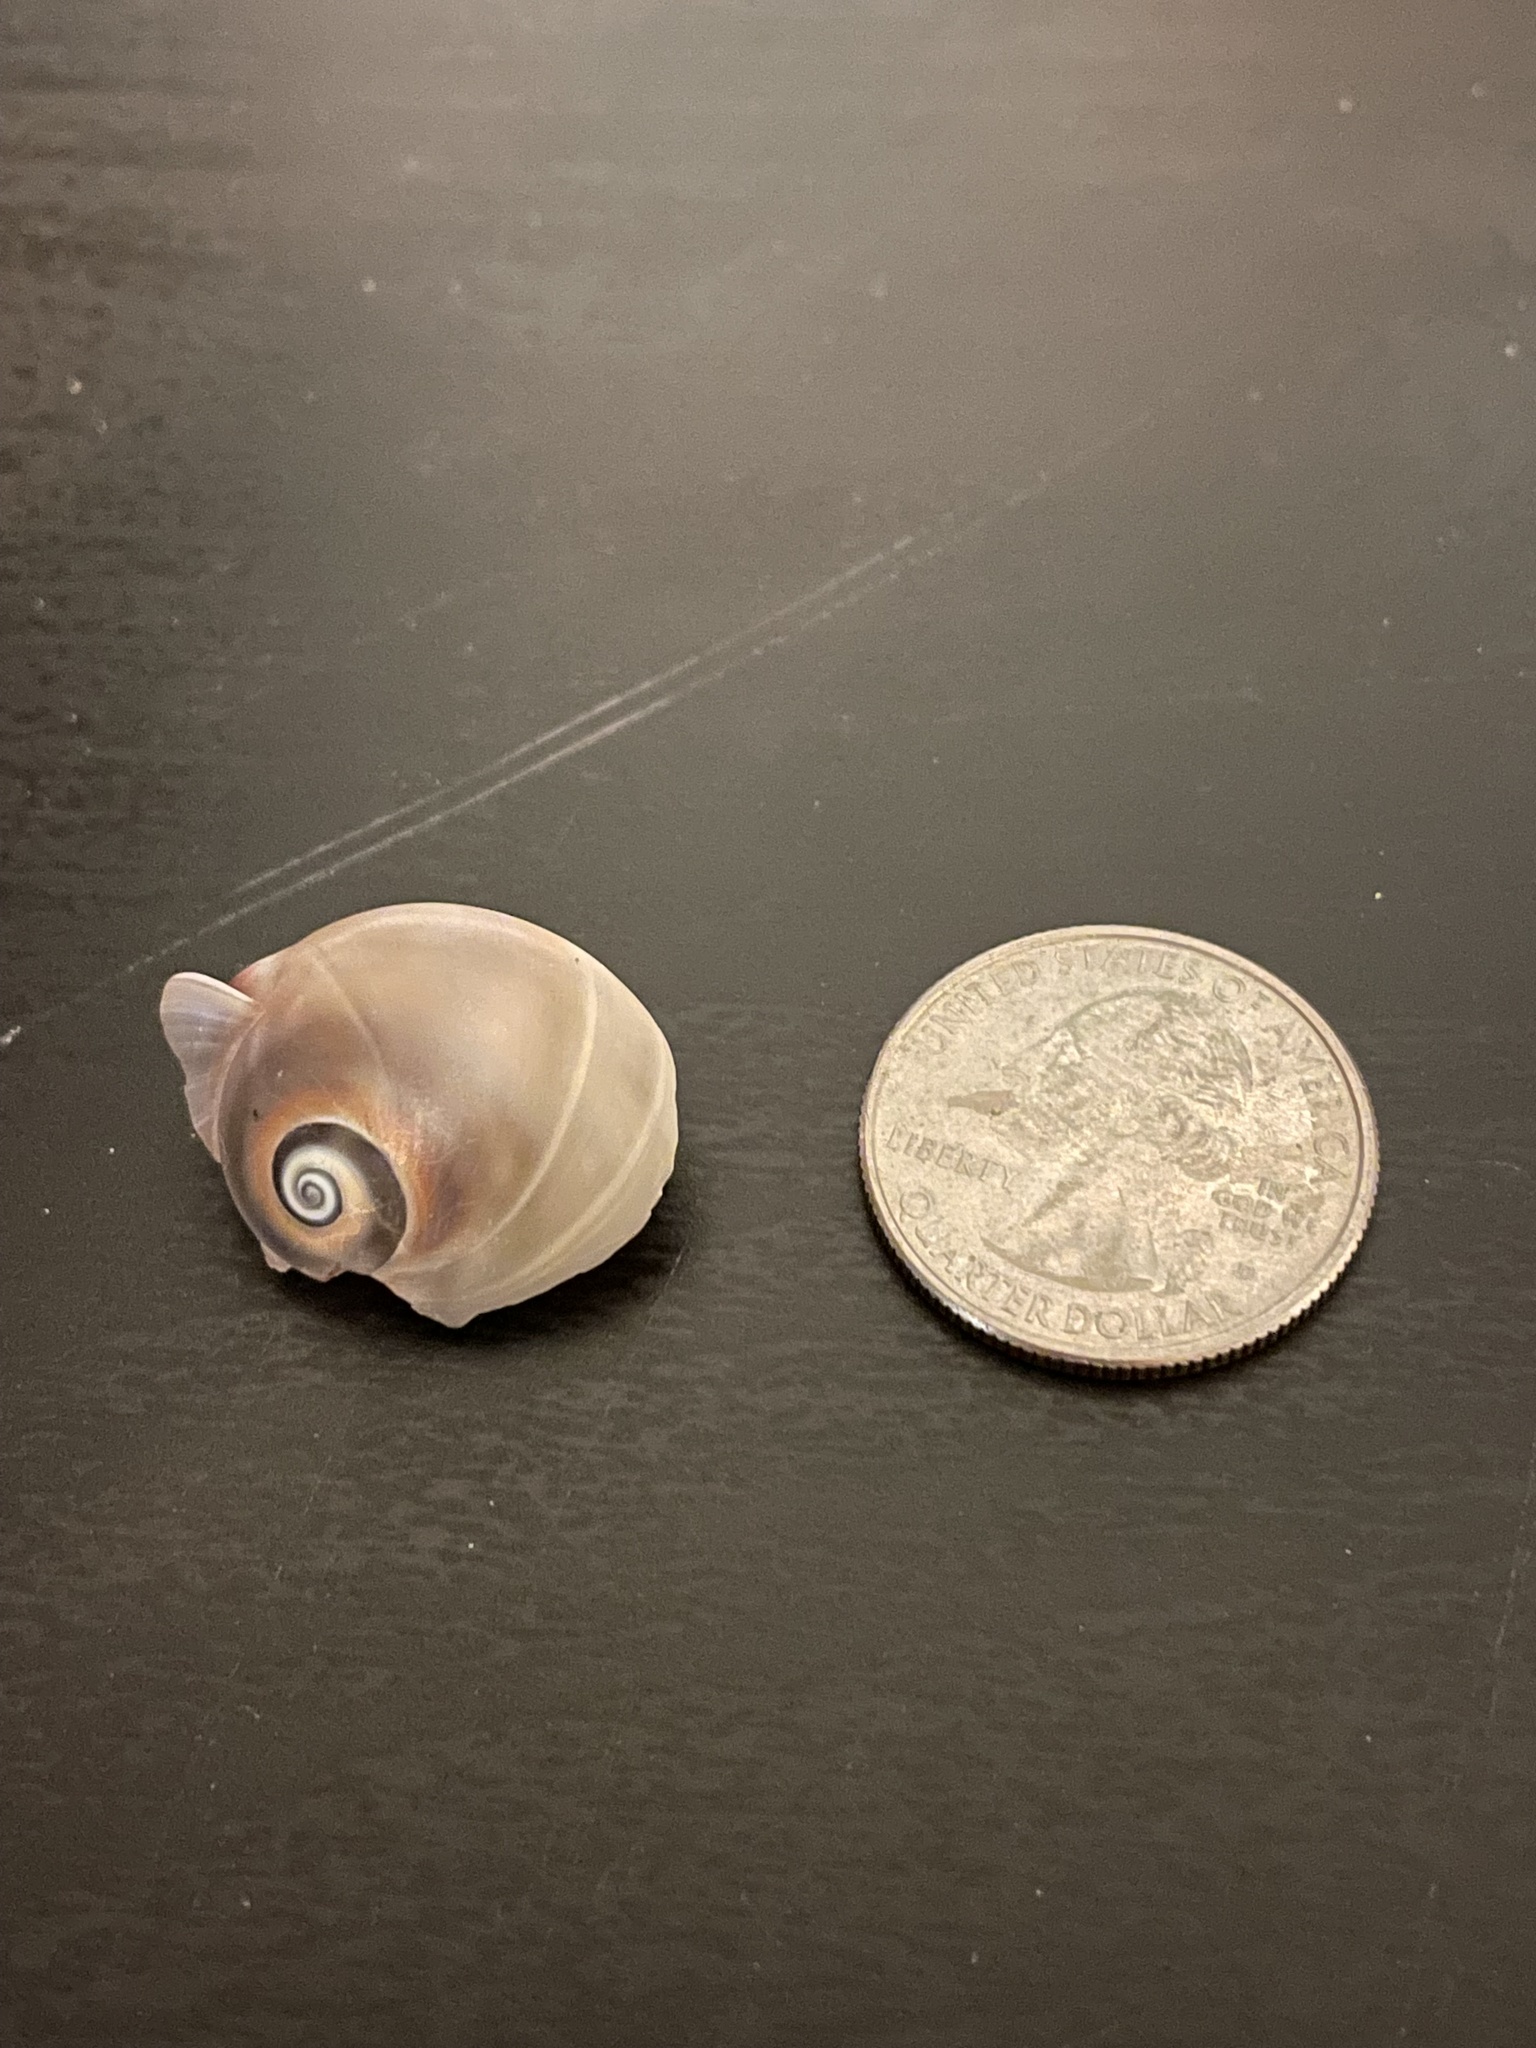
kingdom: Animalia
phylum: Mollusca
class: Gastropoda
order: Littorinimorpha
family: Naticidae
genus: Neverita
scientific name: Neverita duplicata
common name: Lobed moonsnail
